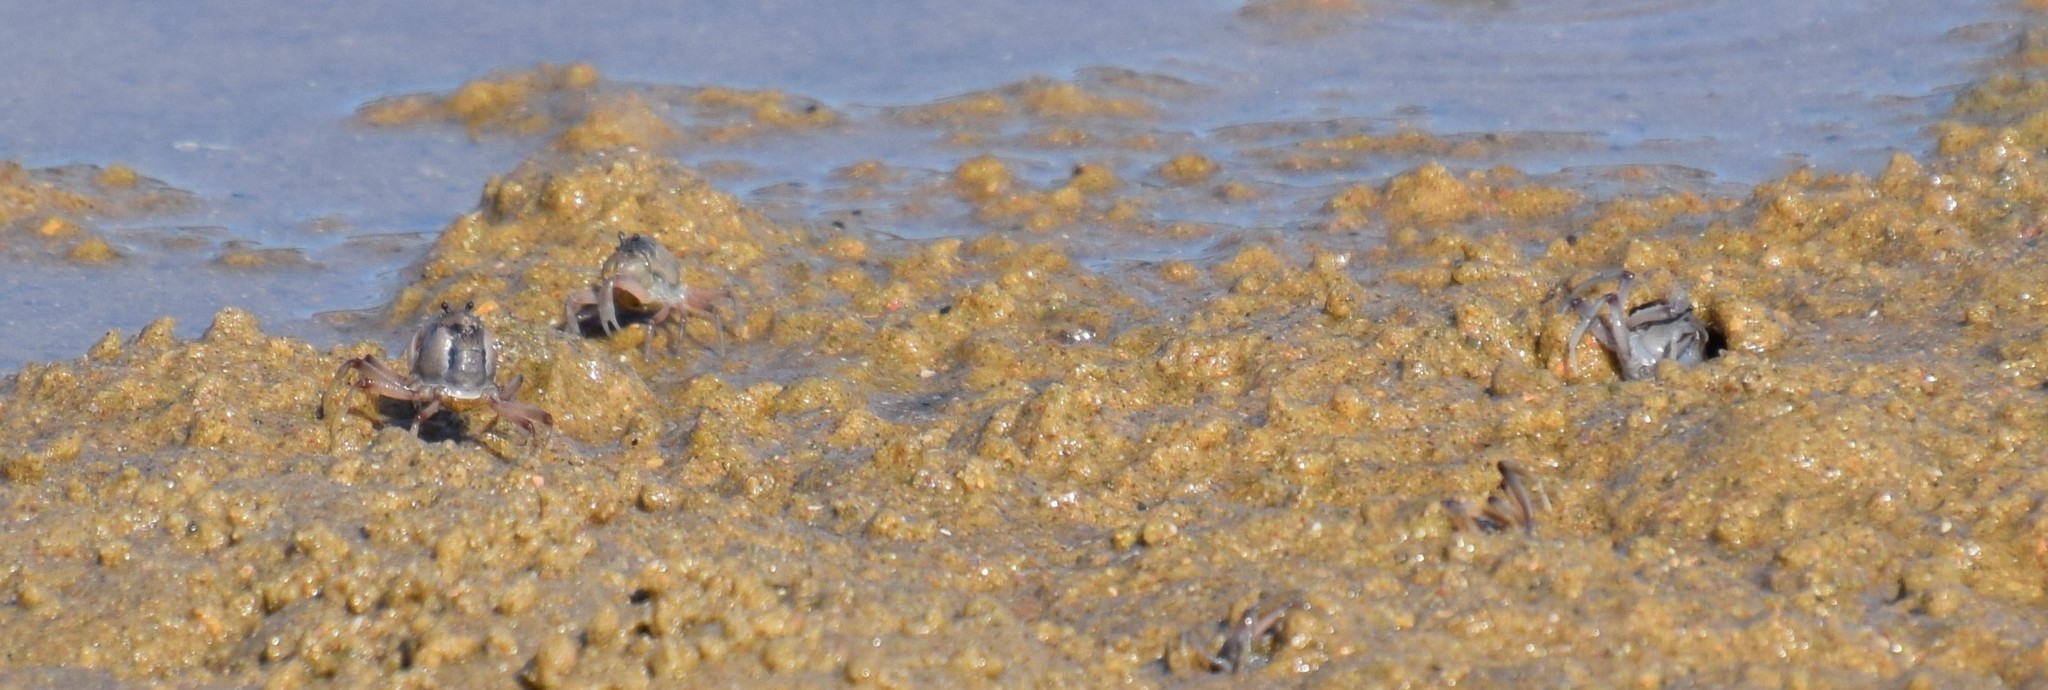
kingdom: Animalia
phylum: Arthropoda
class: Malacostraca
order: Decapoda
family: Mictyridae
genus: Mictyris
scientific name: Mictyris longicarpus
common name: Light-blue soldier crab
